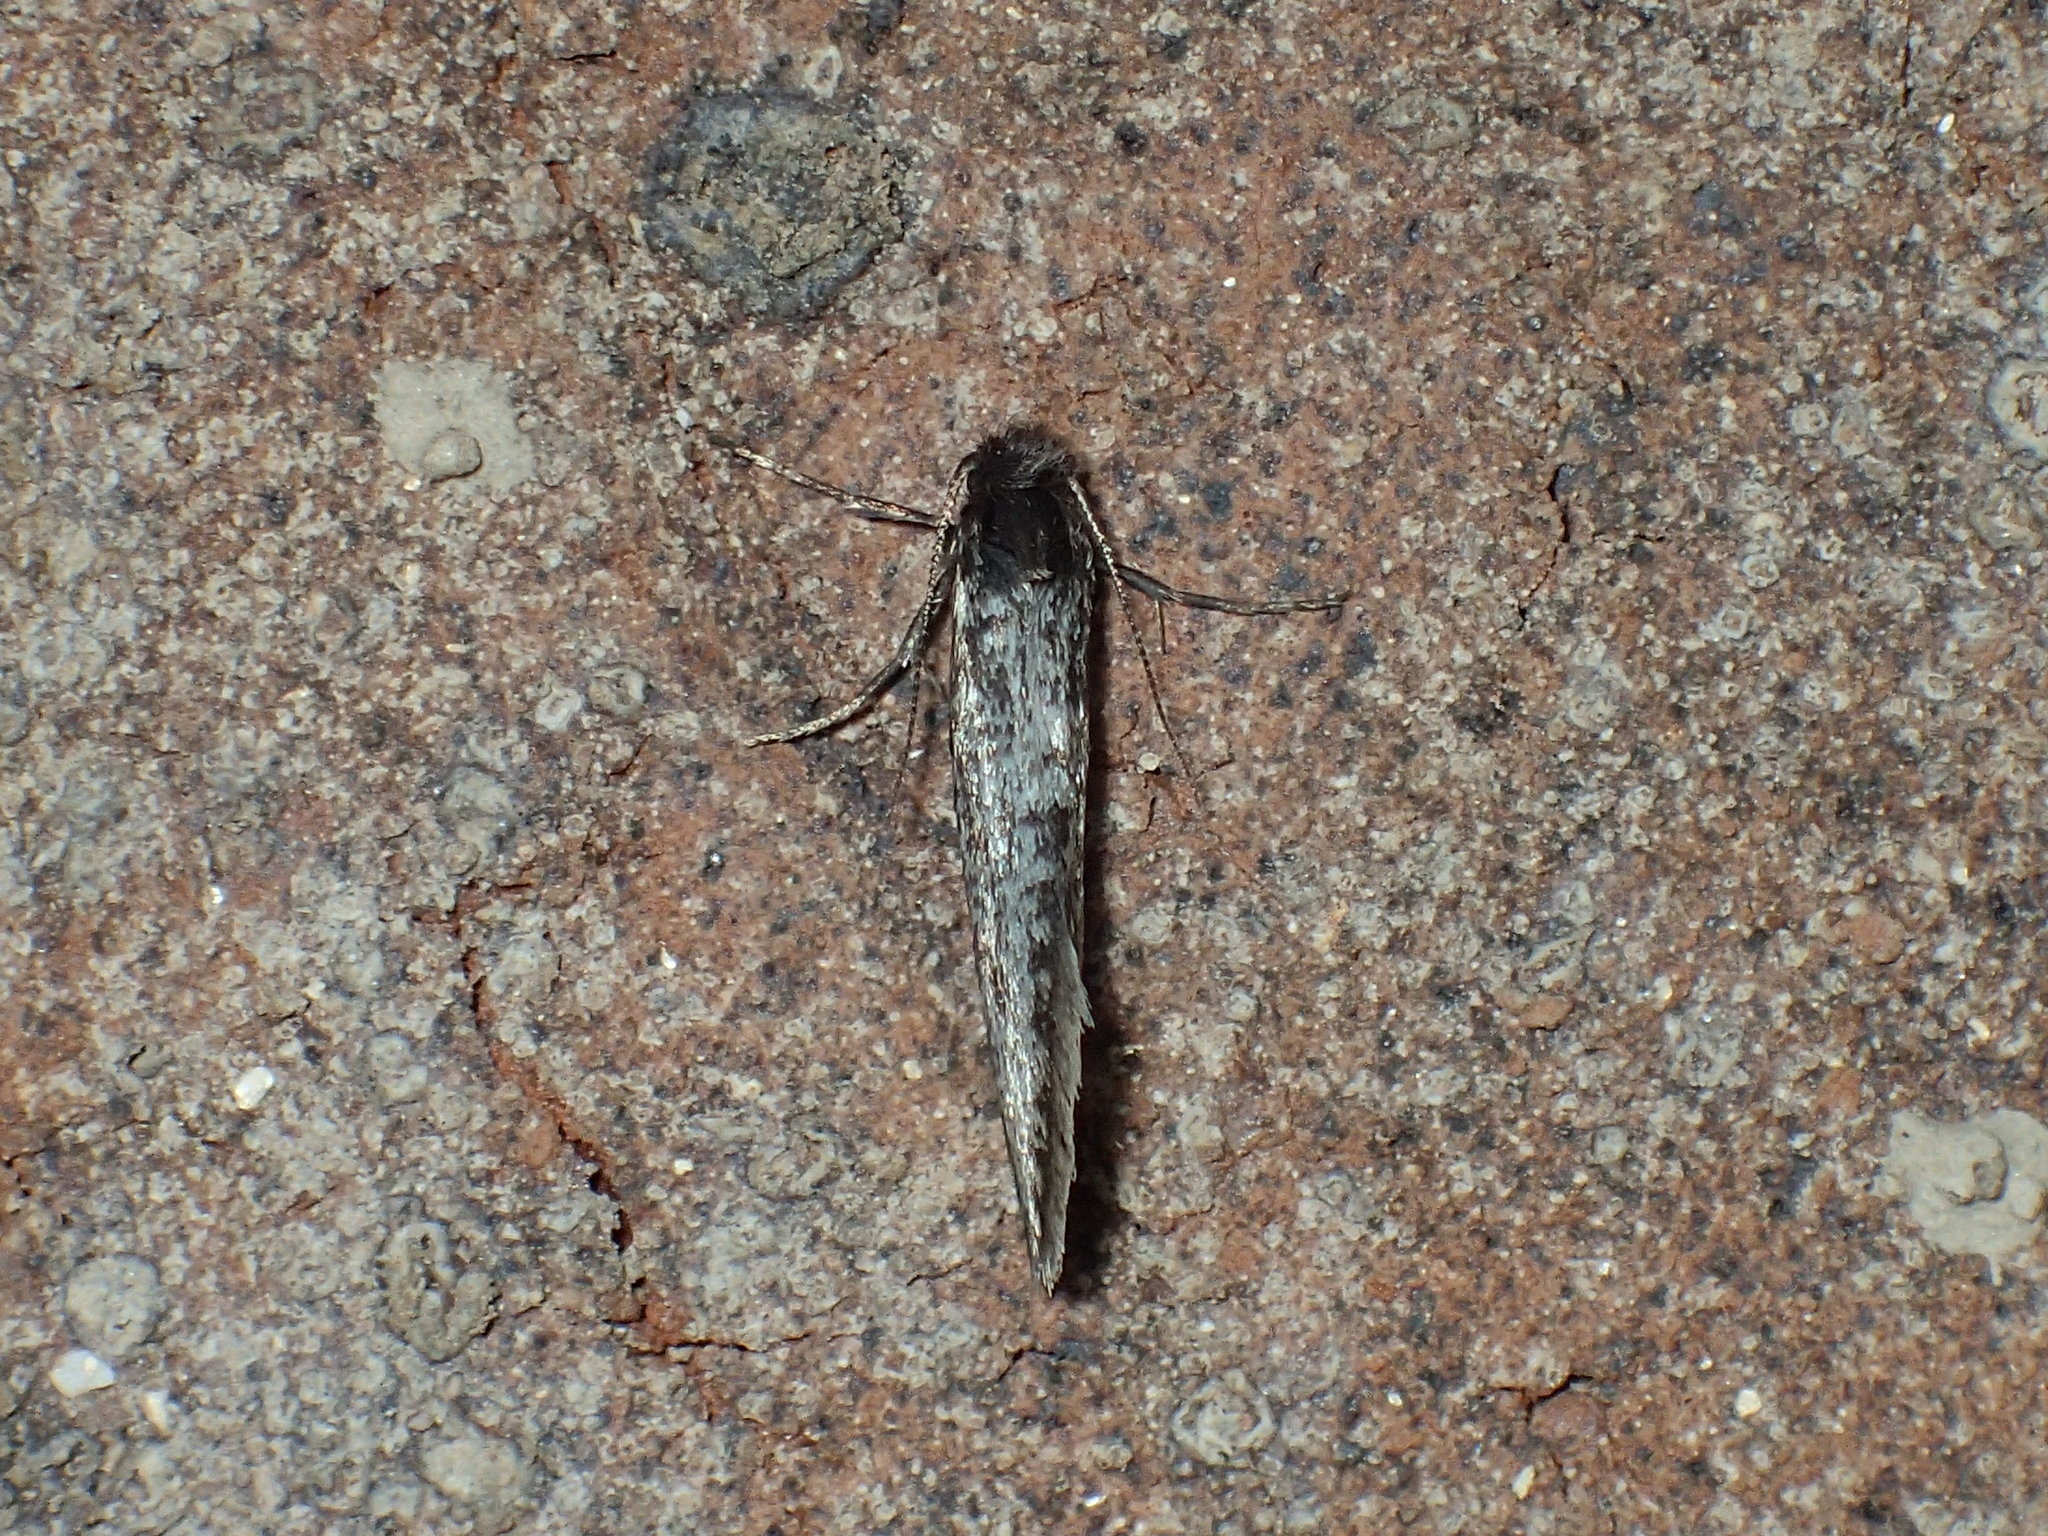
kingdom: Animalia
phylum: Arthropoda
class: Insecta
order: Lepidoptera
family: Psychidae
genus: Dahlica
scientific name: Dahlica walshella
